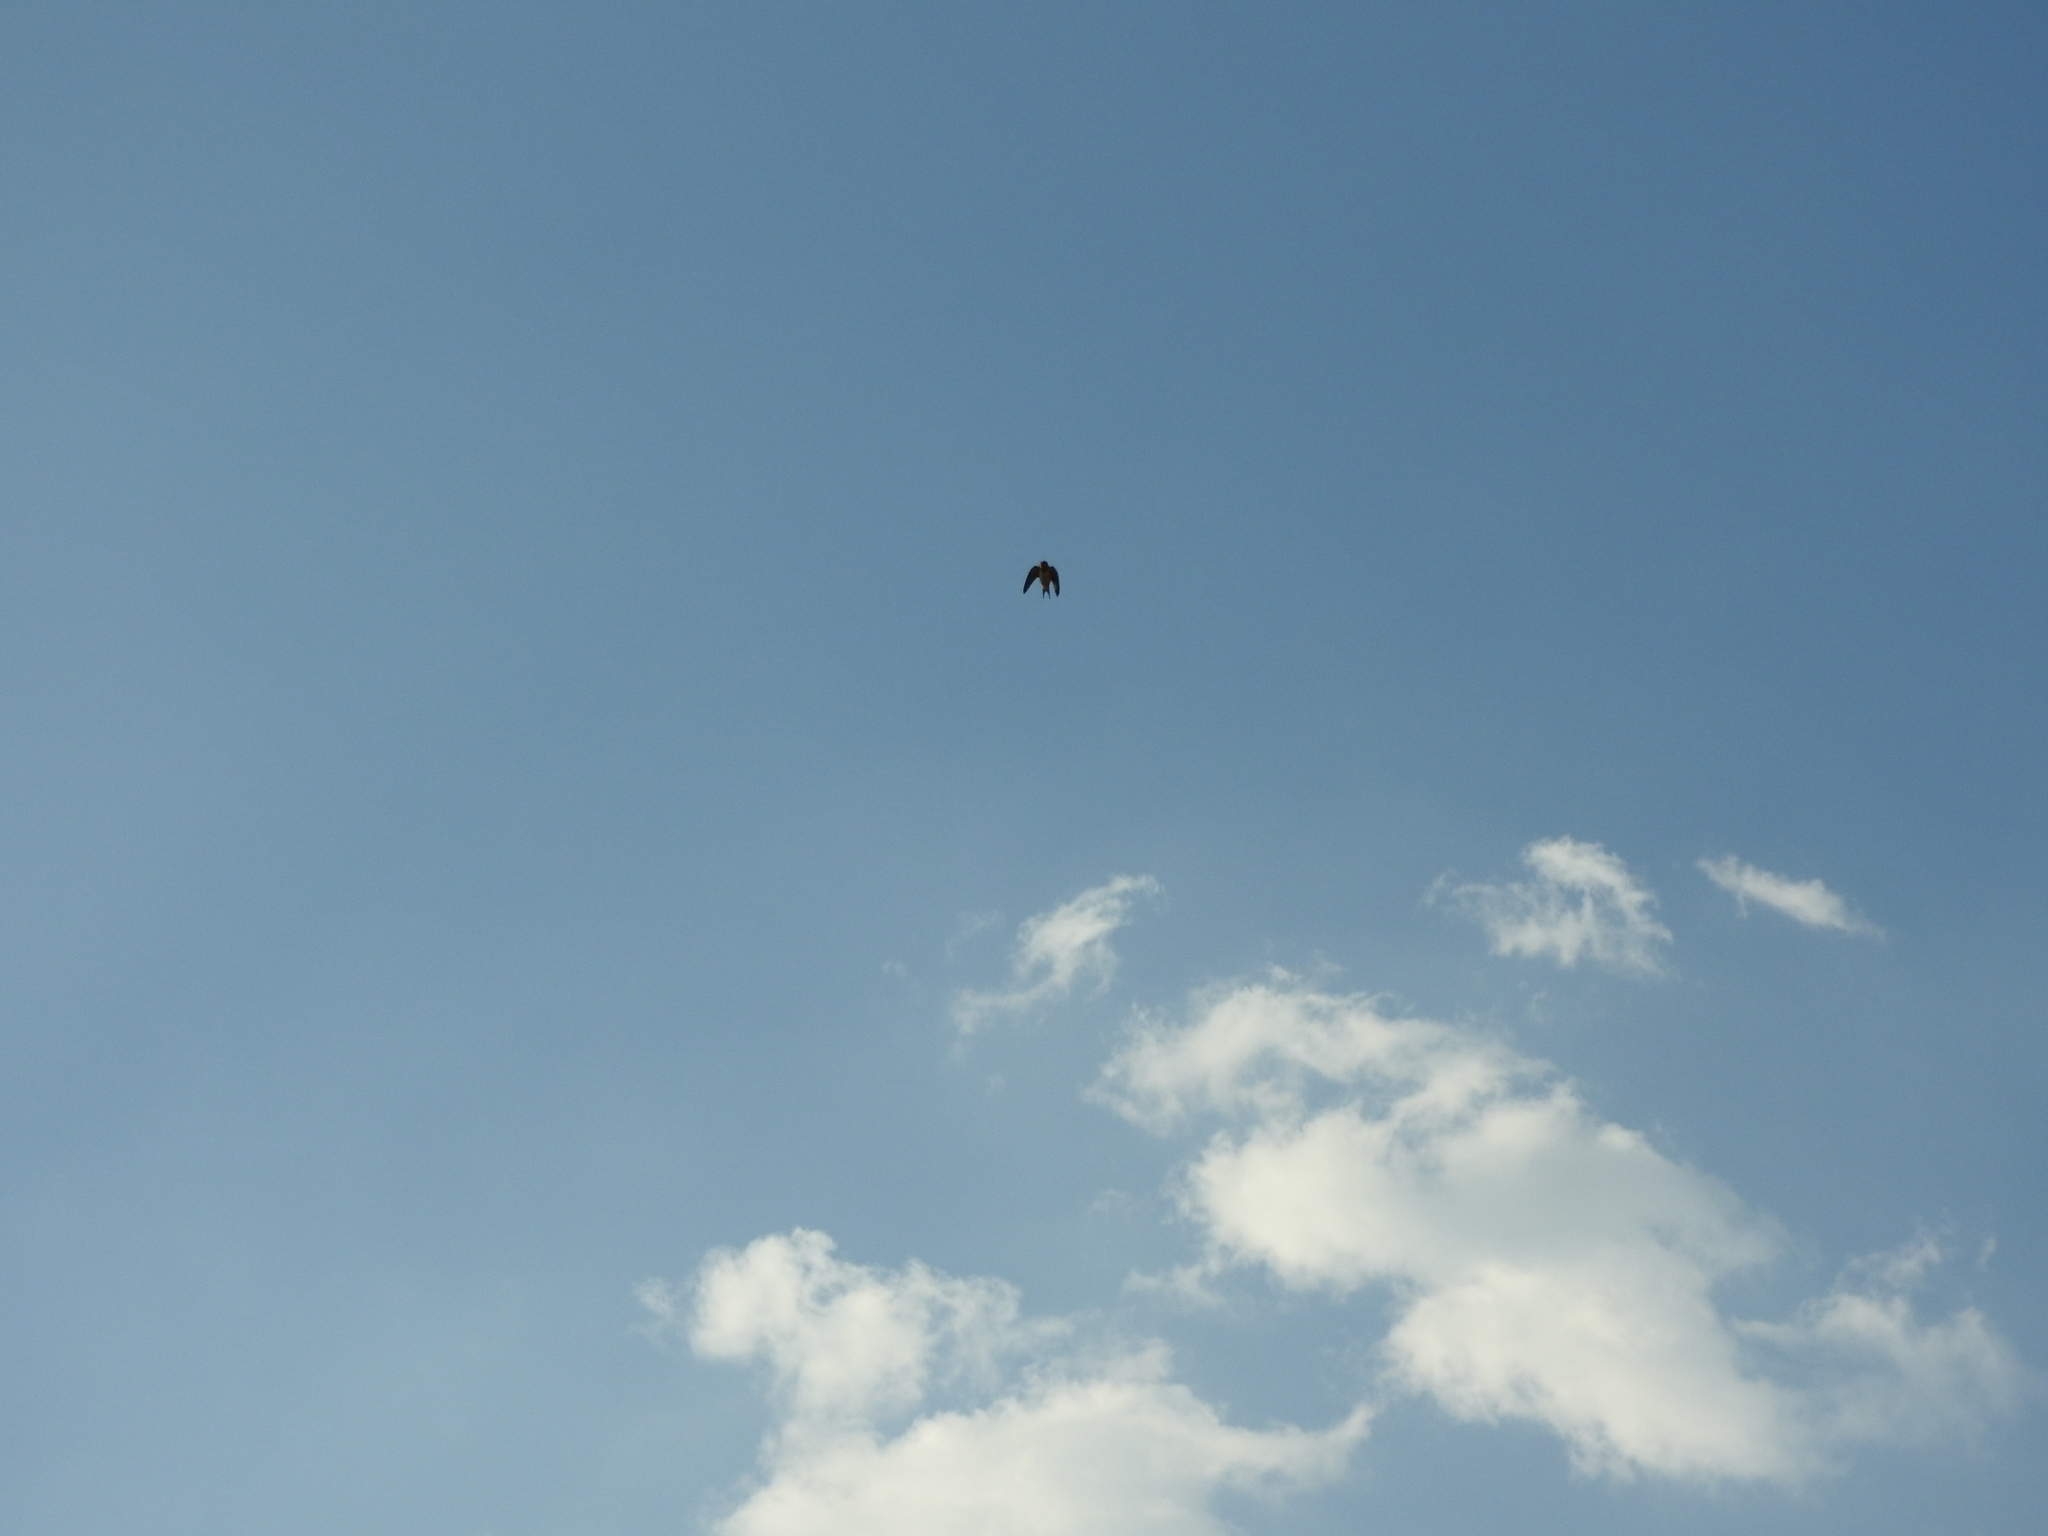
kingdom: Animalia
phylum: Chordata
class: Aves
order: Passeriformes
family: Hirundinidae
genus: Hirundo
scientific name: Hirundo rustica
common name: Barn swallow
